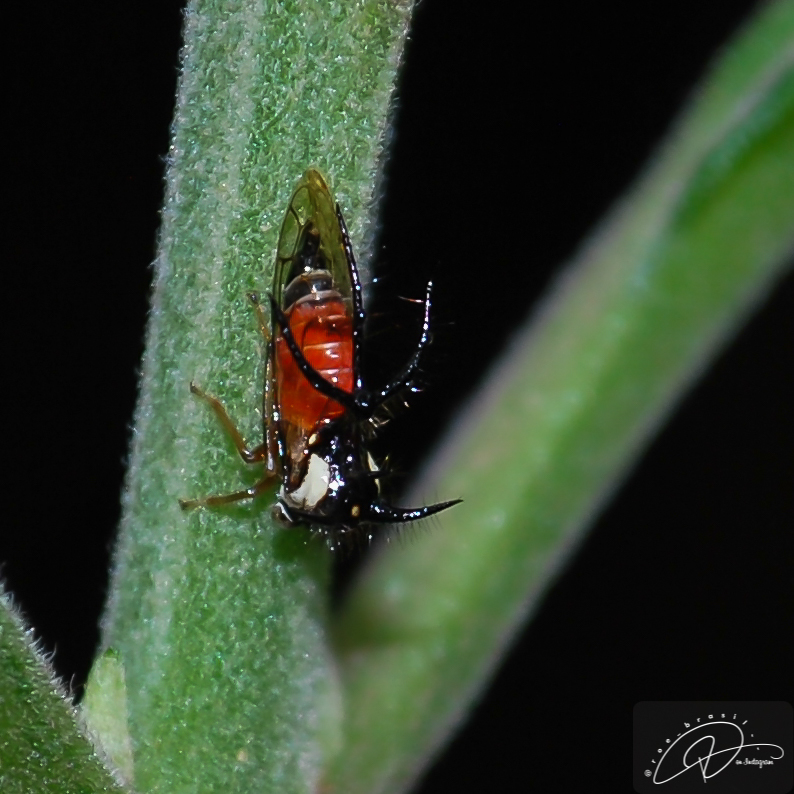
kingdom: Animalia
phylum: Arthropoda
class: Insecta
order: Hemiptera
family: Membracidae
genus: Cyphonia
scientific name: Cyphonia trifida
